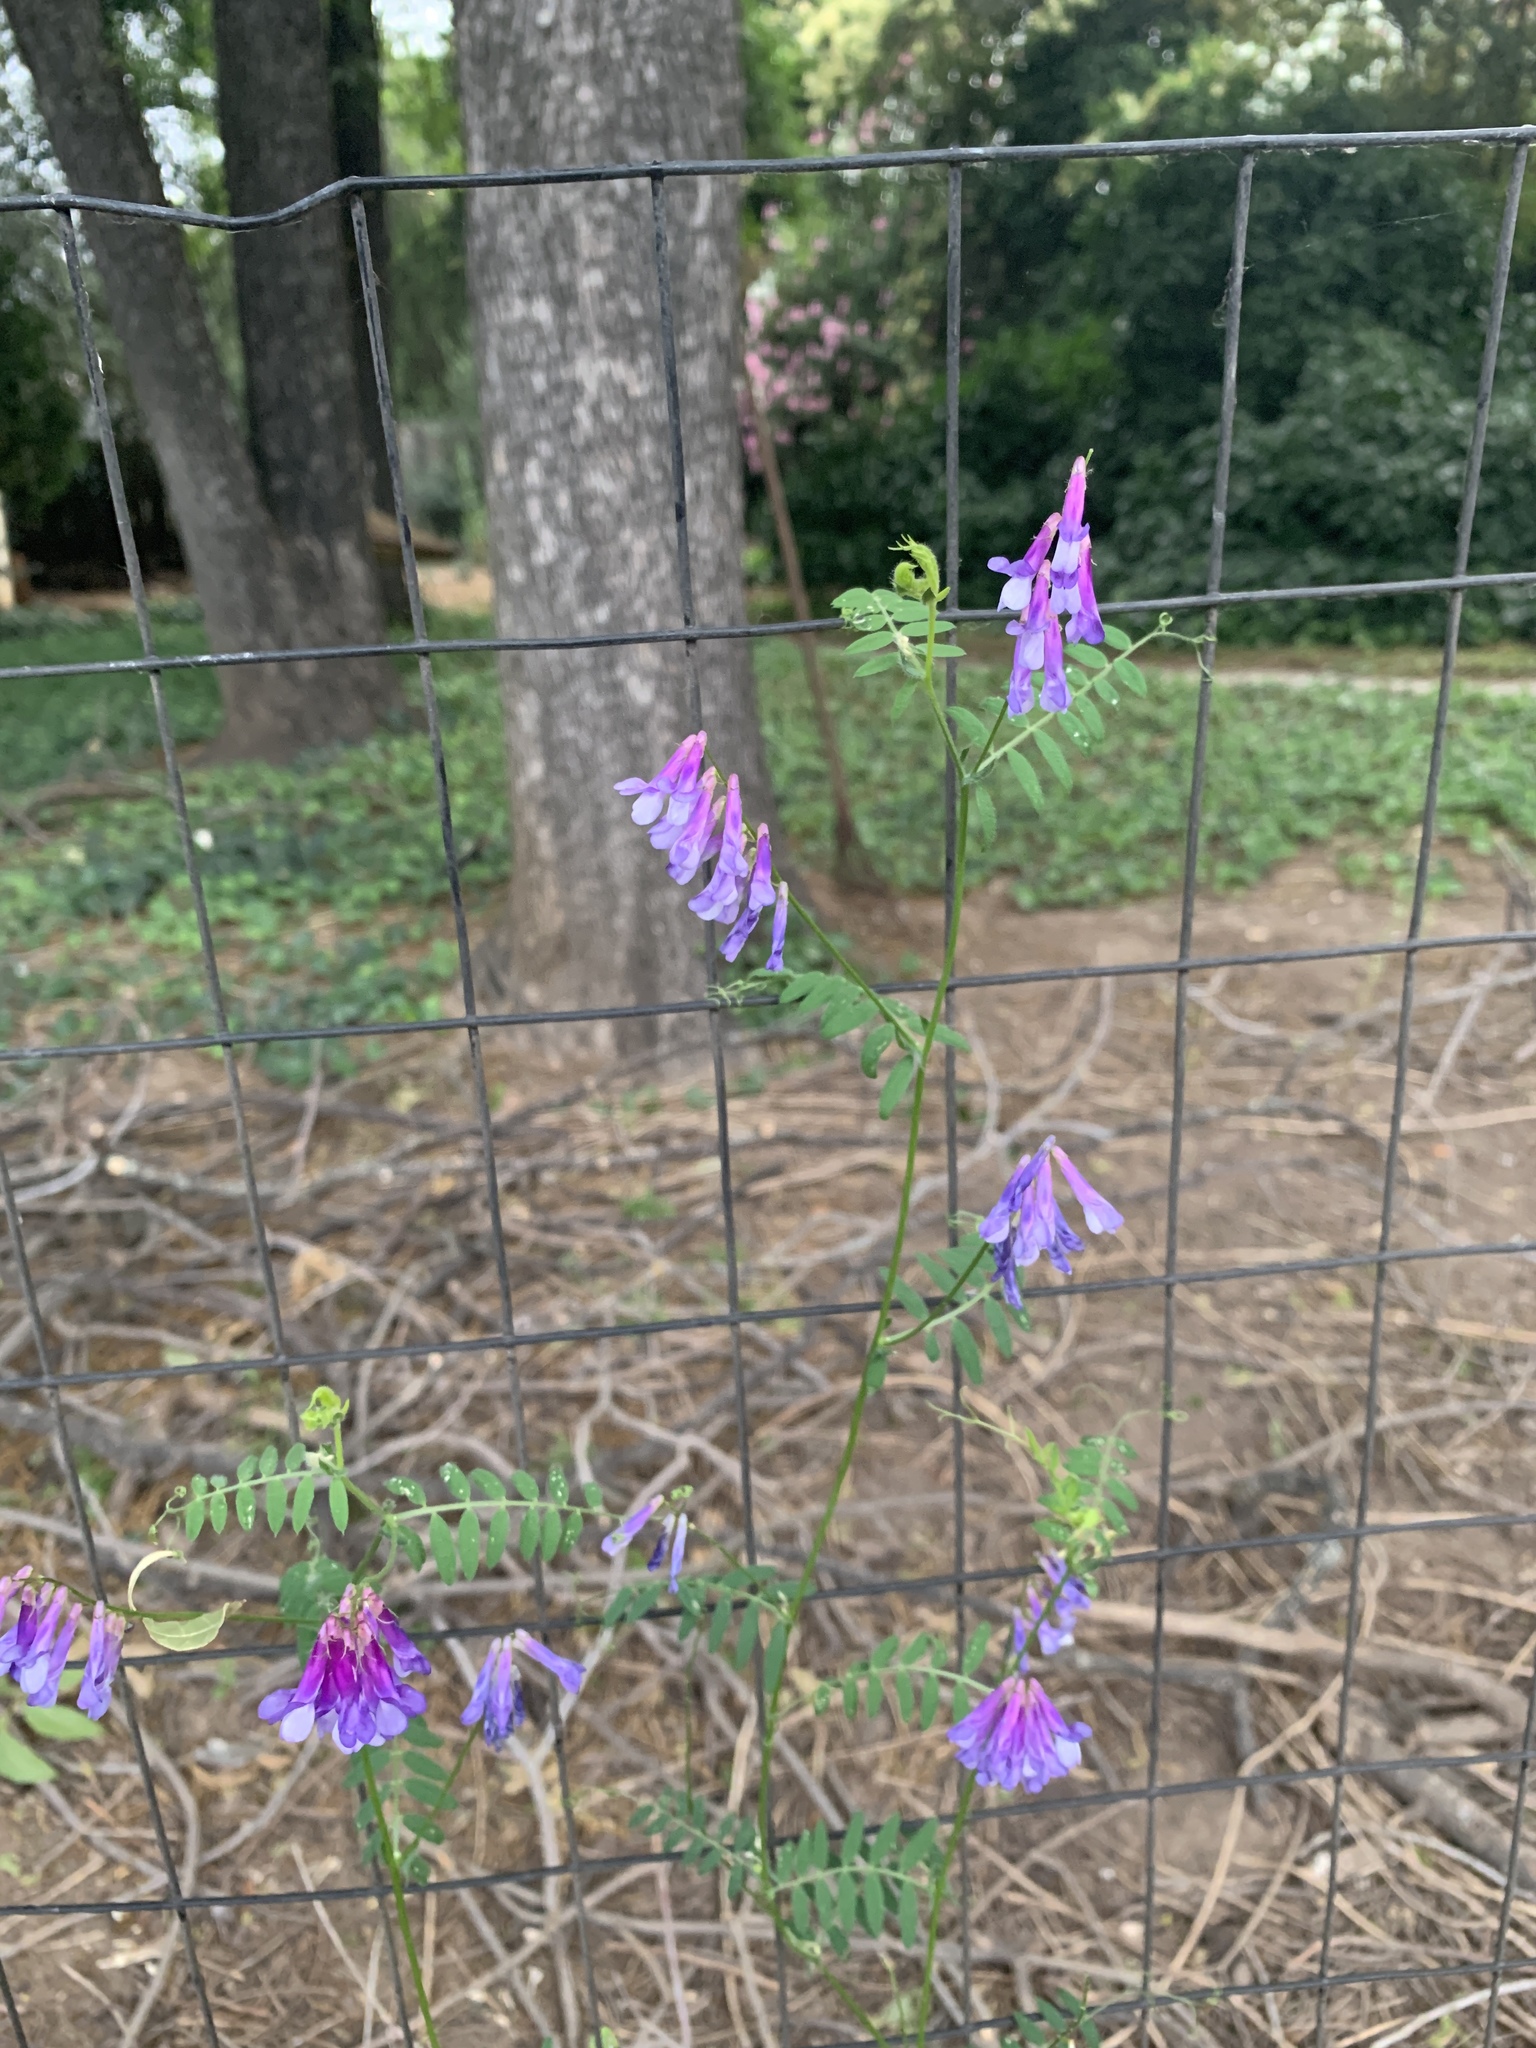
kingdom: Plantae
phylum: Tracheophyta
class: Magnoliopsida
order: Fabales
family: Fabaceae
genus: Vicia
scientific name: Vicia villosa
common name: Fodder vetch
